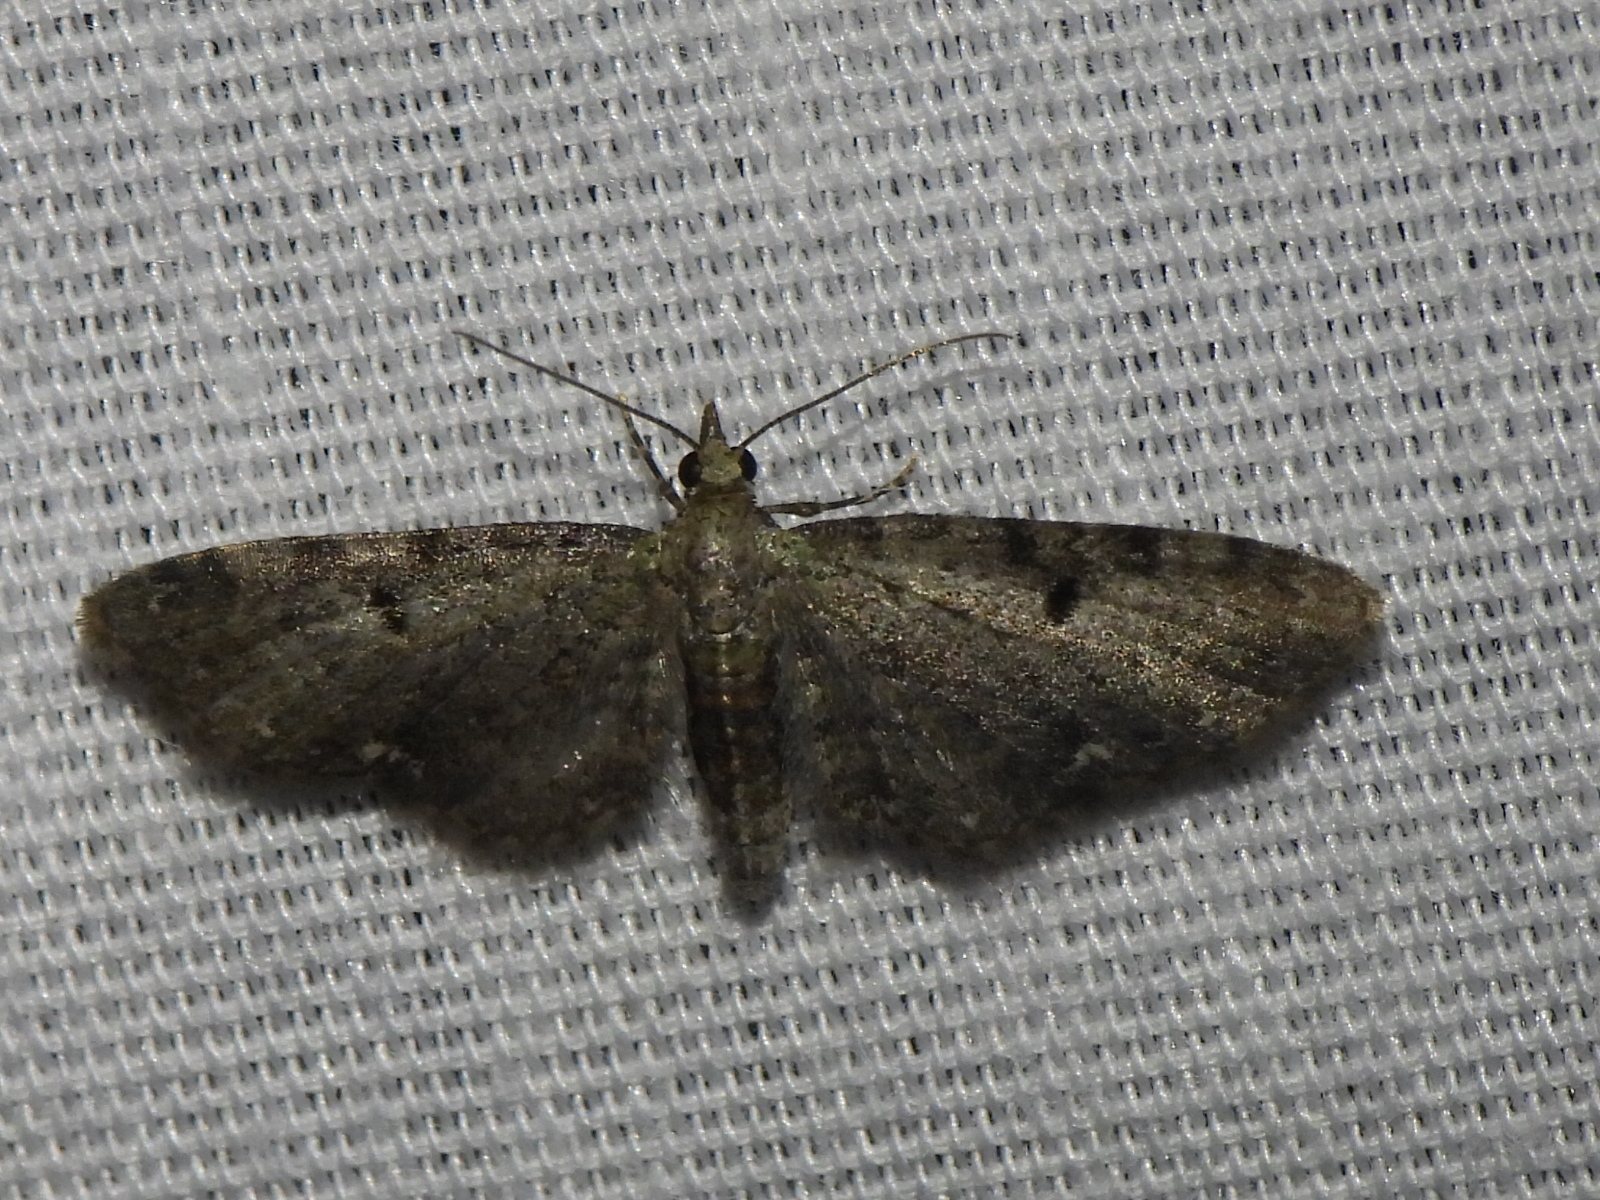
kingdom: Animalia
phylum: Arthropoda
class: Insecta
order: Lepidoptera
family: Geometridae
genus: Eupithecia
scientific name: Eupithecia miserulata
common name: Common eupithecia
